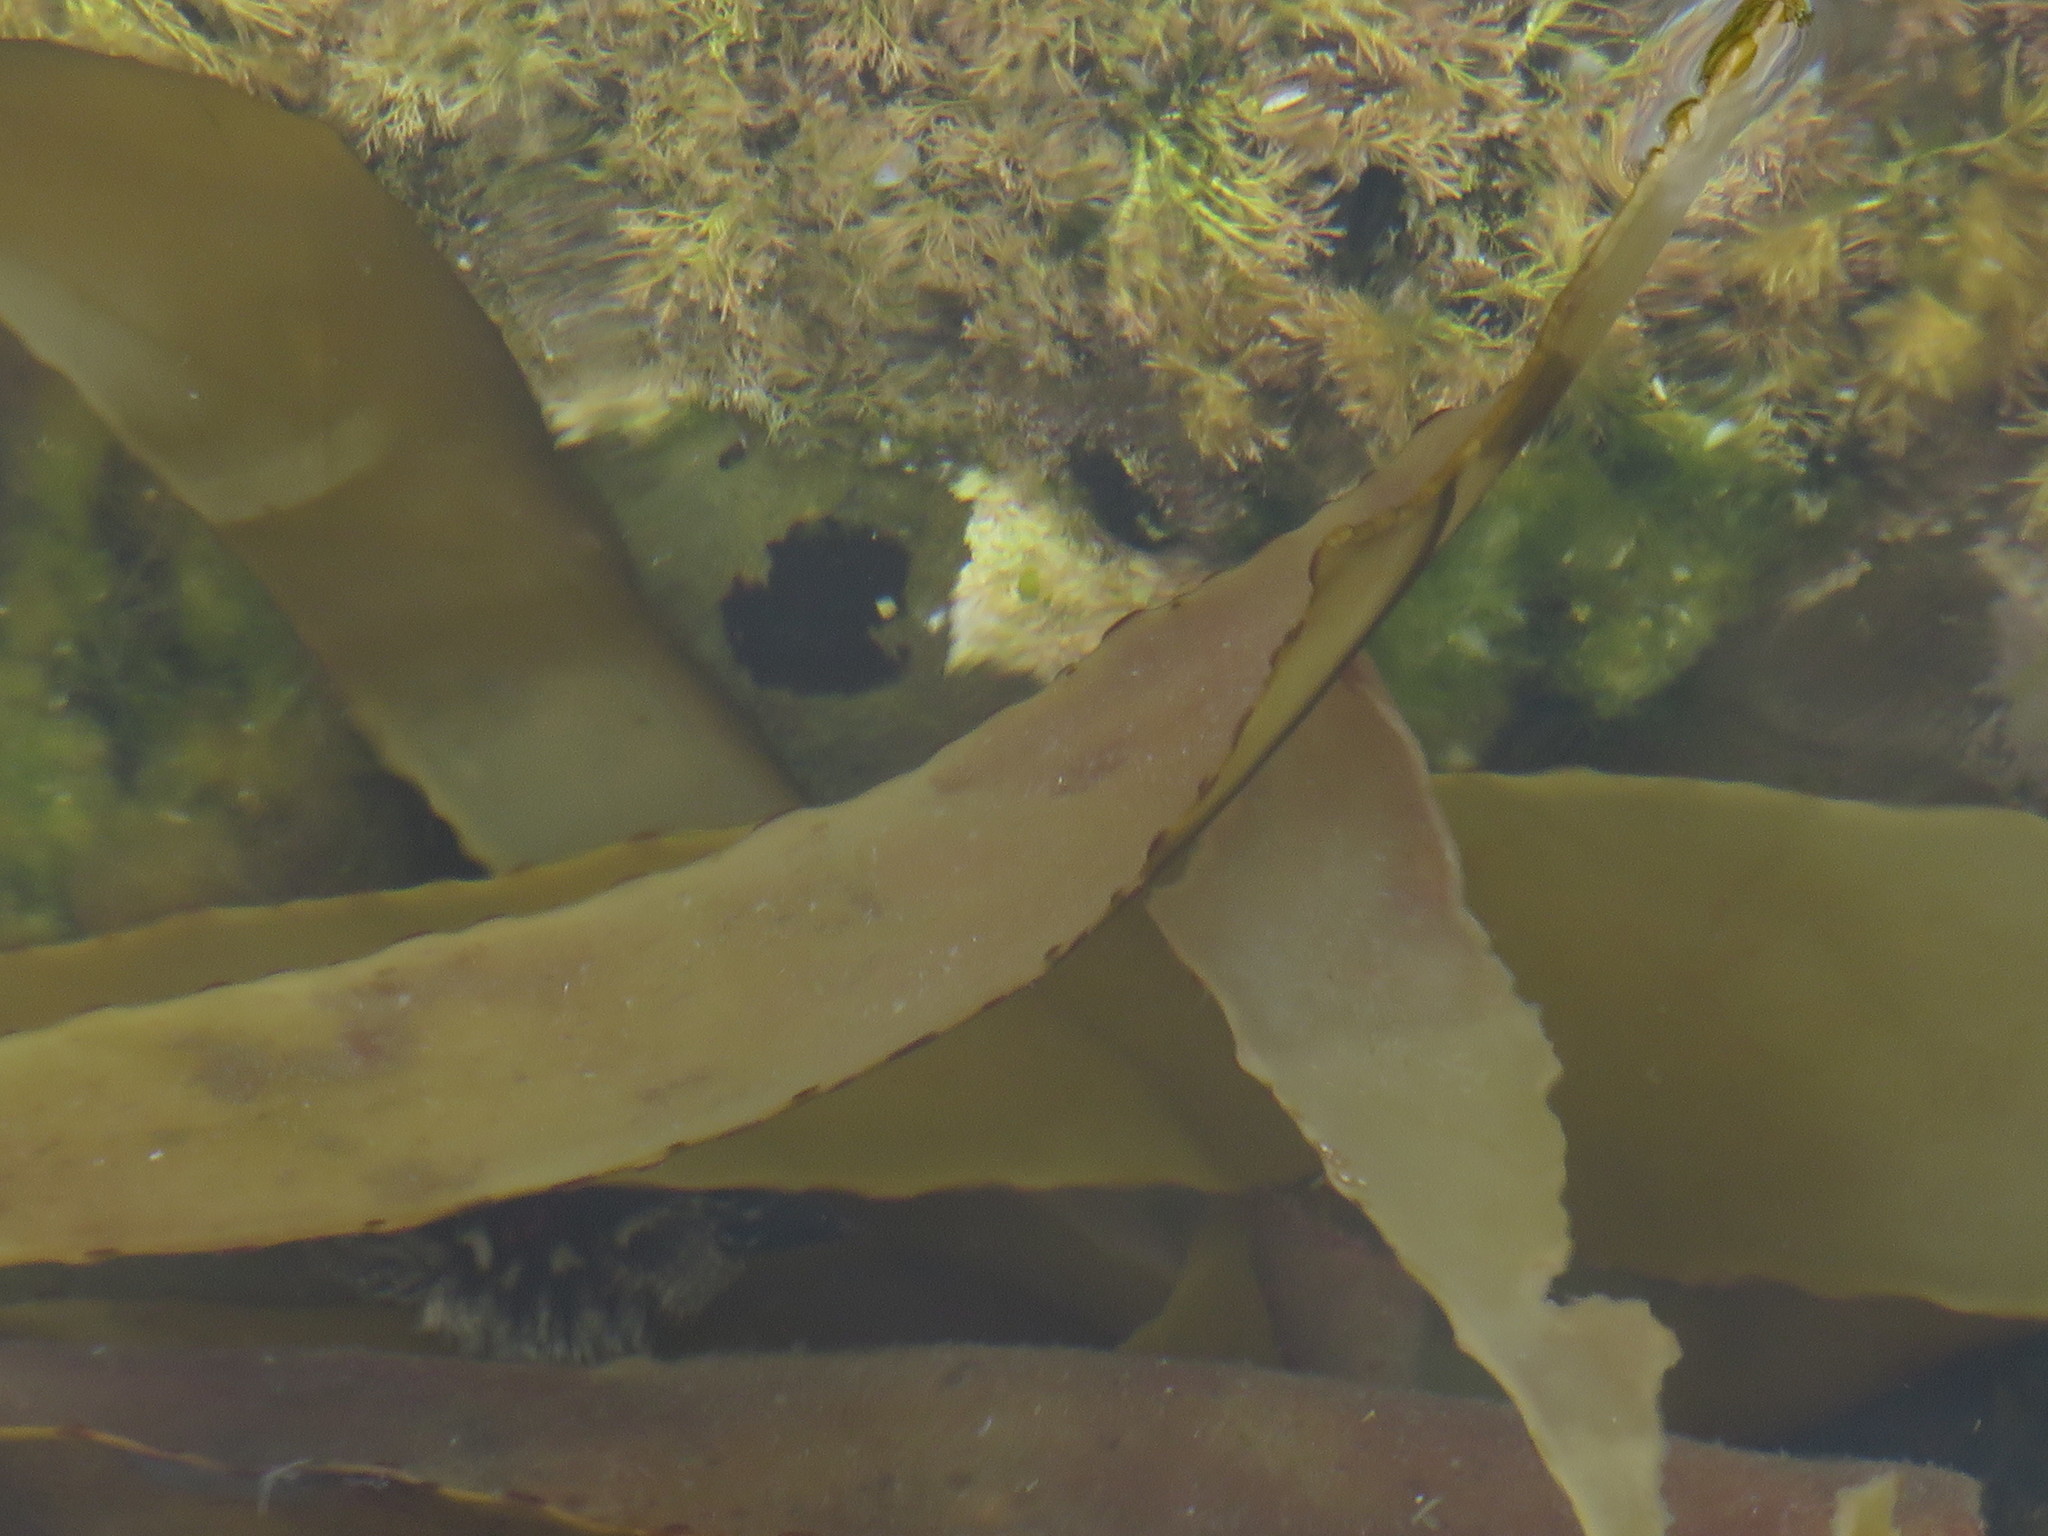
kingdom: Chromista
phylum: Ochrophyta
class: Phaeophyceae
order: Laminariales
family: Lessoniaceae
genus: Ecklonia
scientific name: Ecklonia
